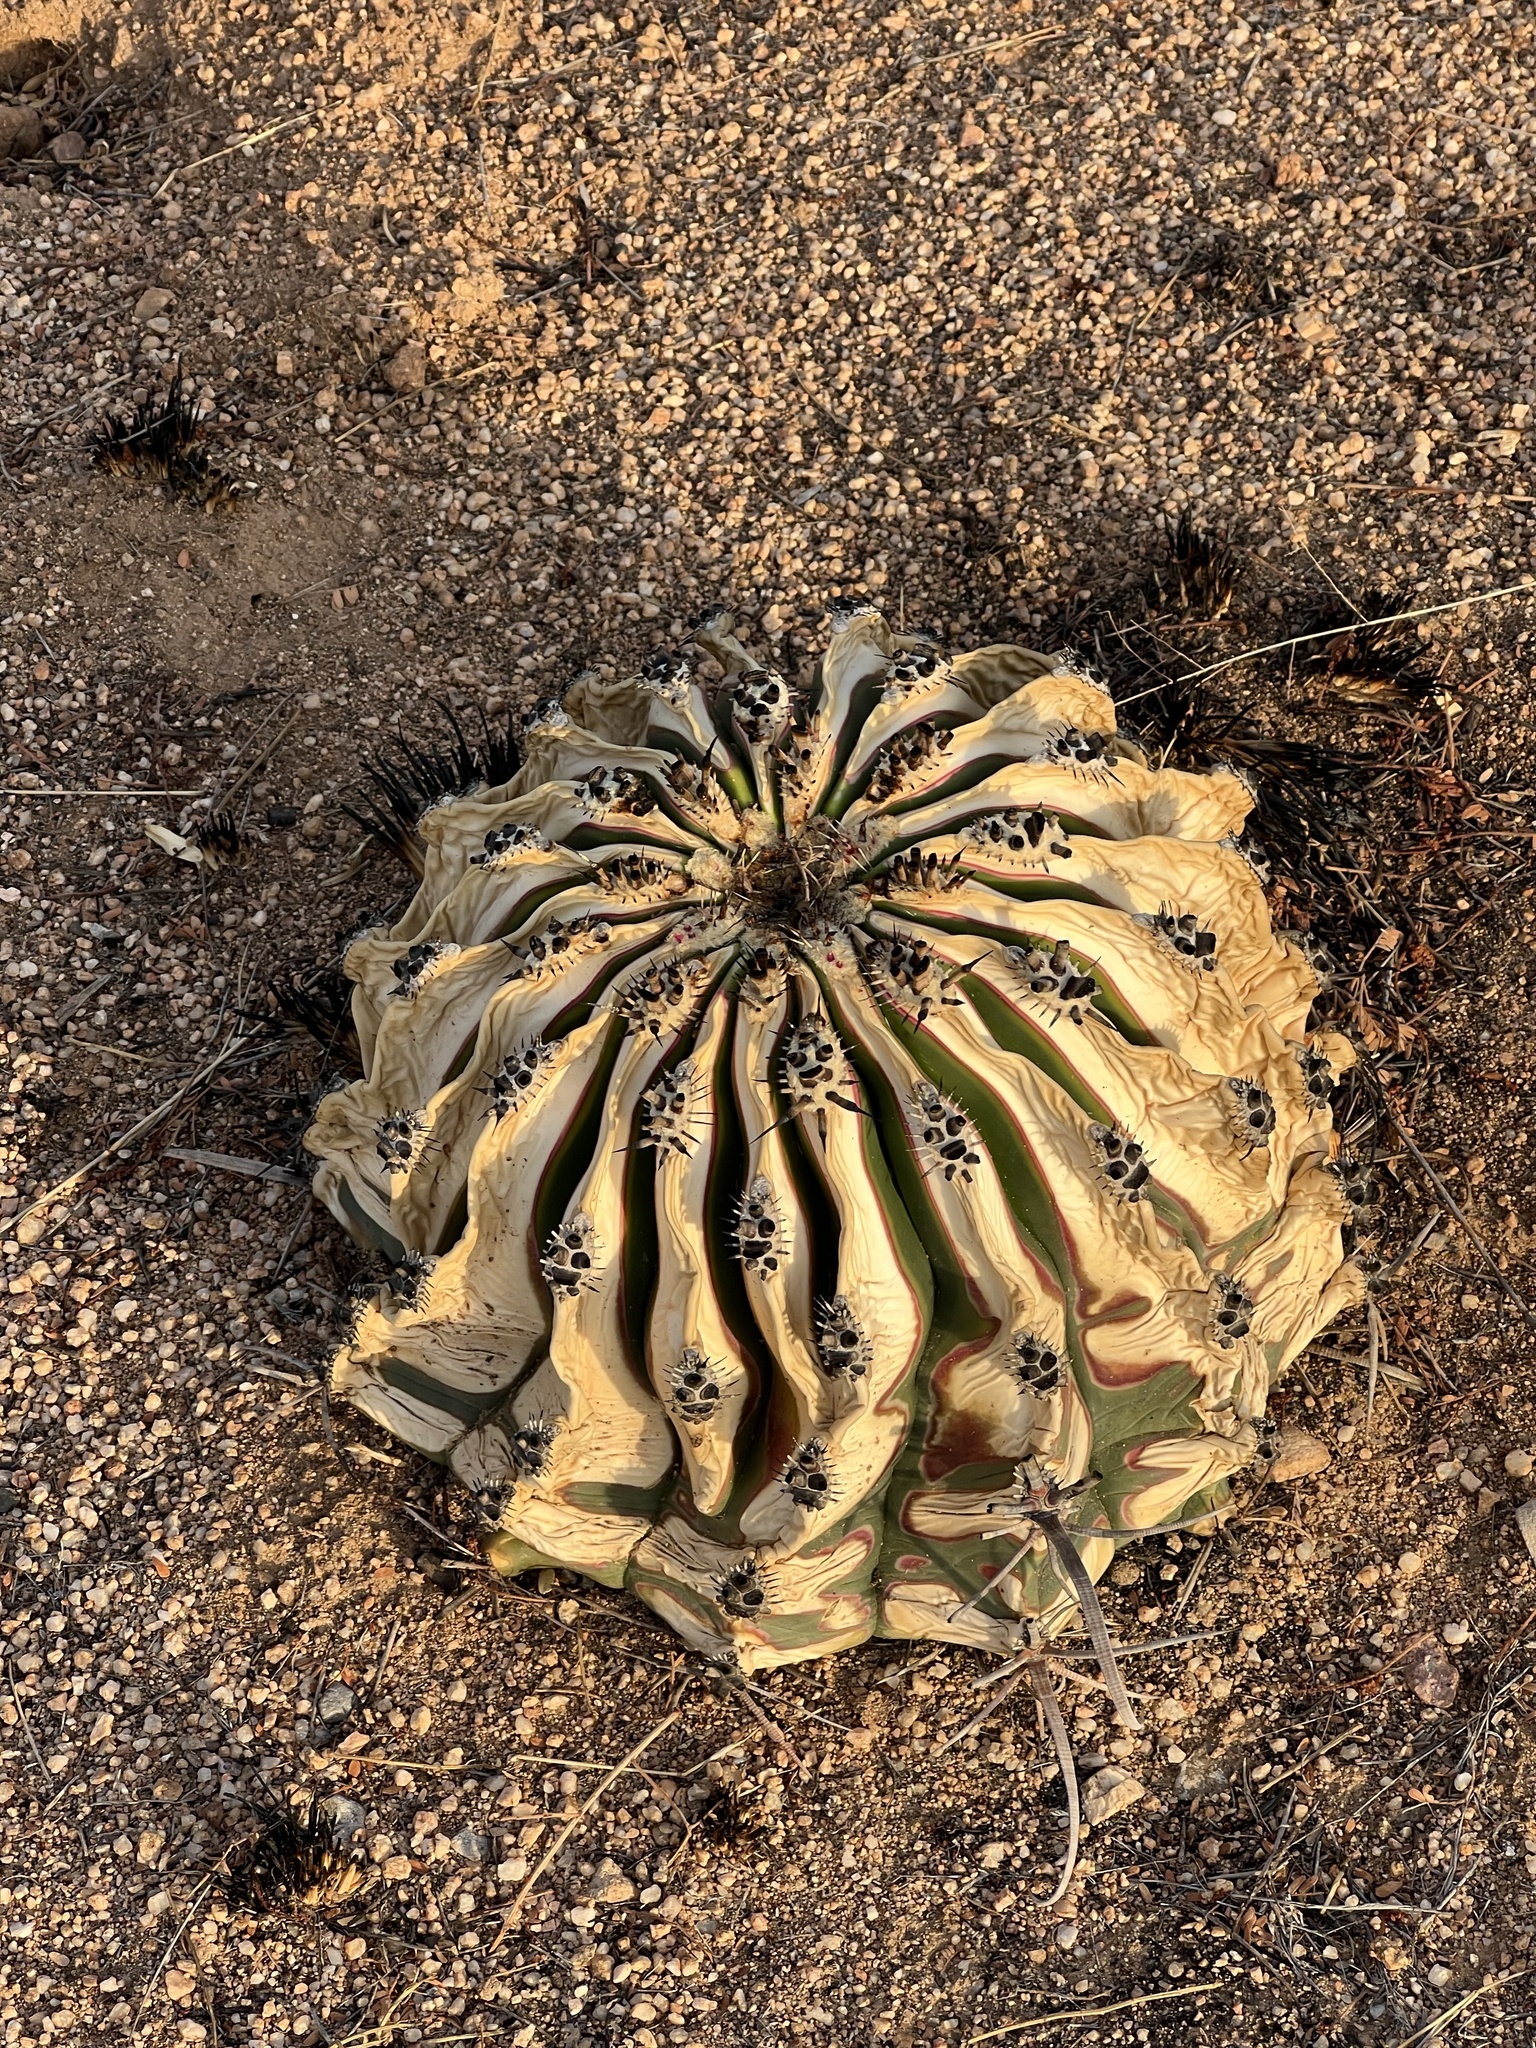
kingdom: Plantae
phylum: Tracheophyta
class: Magnoliopsida
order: Caryophyllales
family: Cactaceae
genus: Ferocactus
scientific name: Ferocactus wislizeni
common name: Candy barrel cactus
